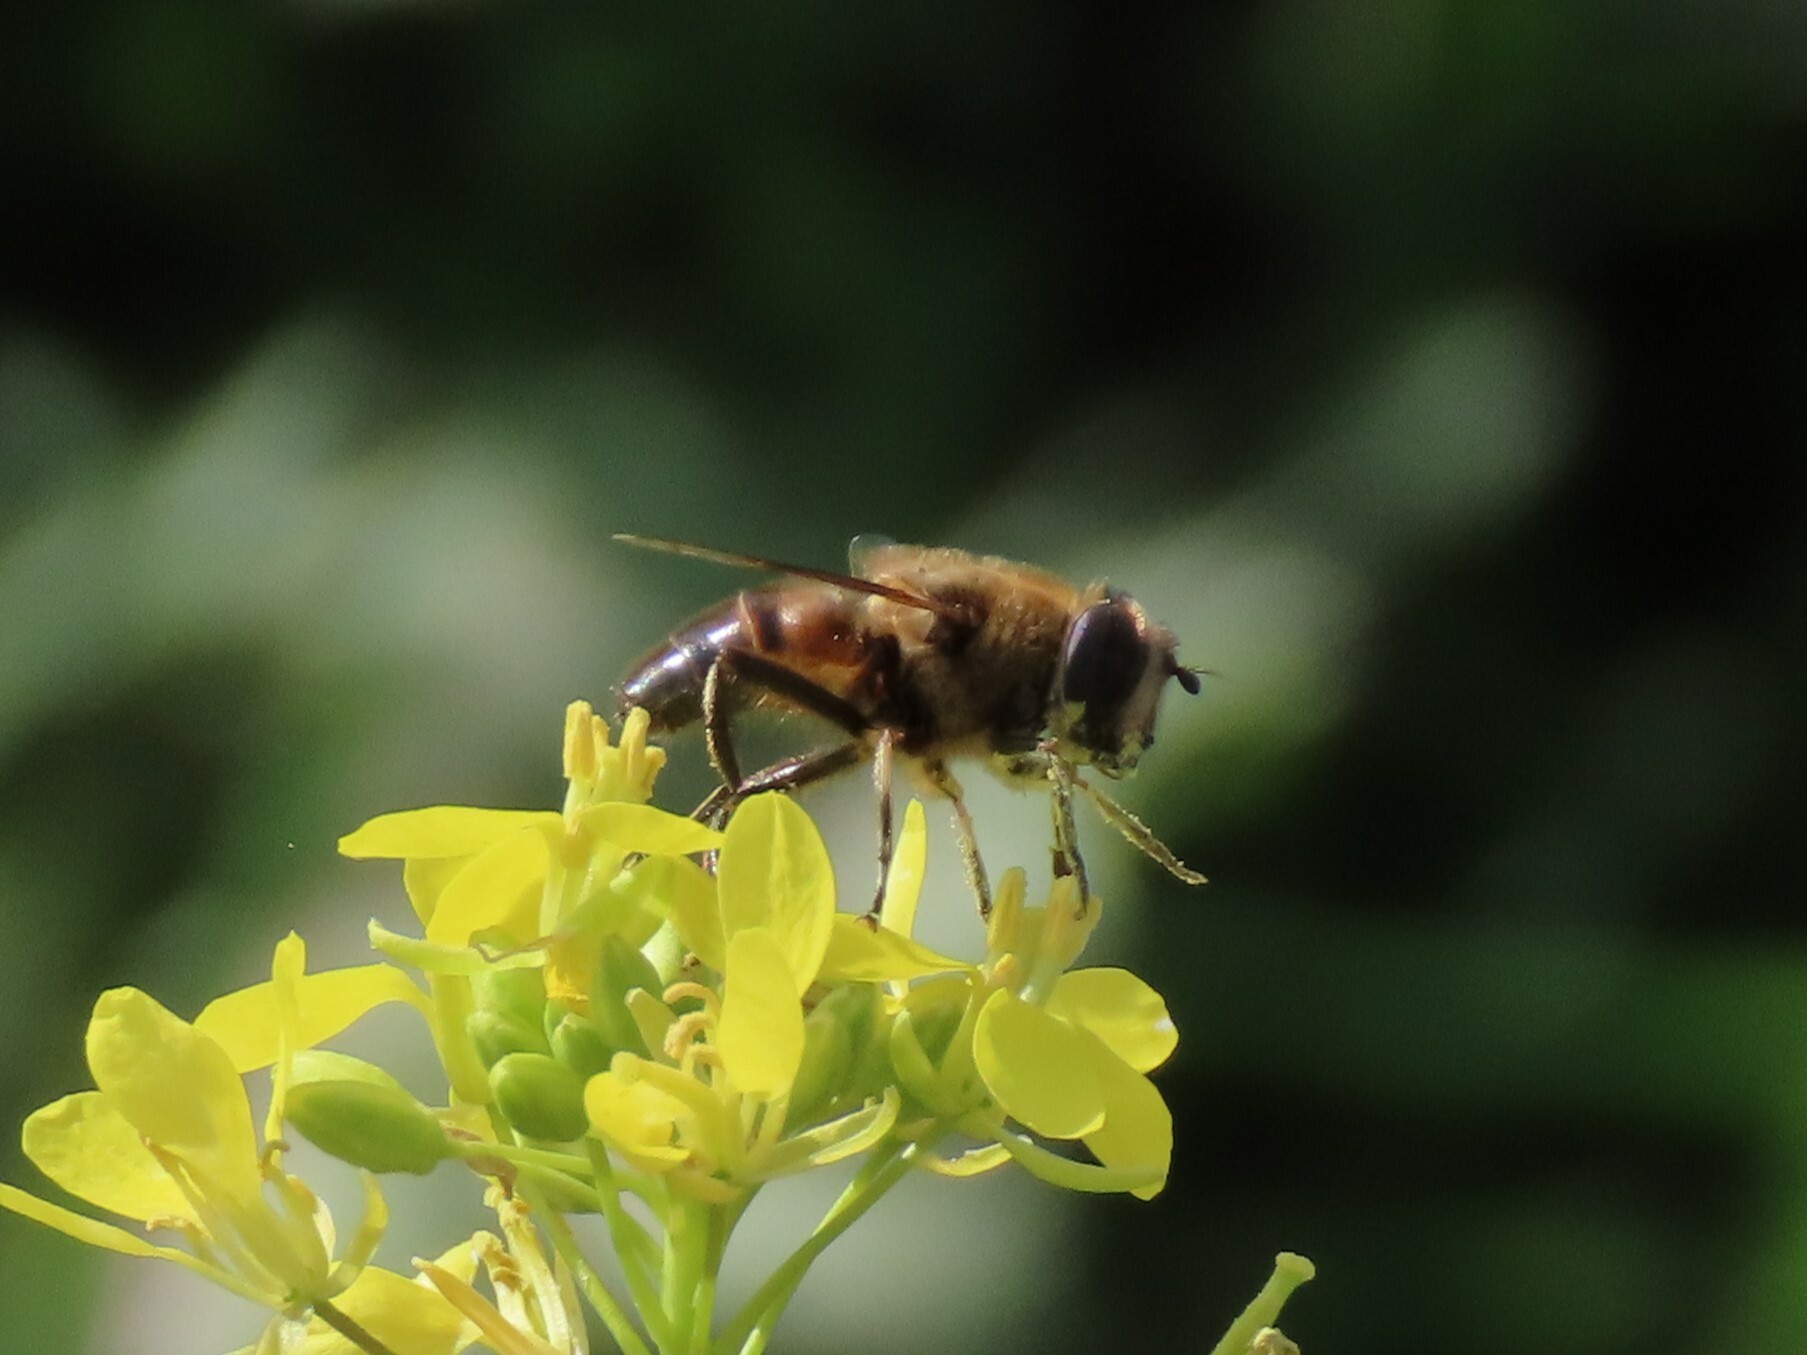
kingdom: Animalia
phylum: Arthropoda
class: Insecta
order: Diptera
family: Syrphidae
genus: Eristalis
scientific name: Eristalis tenax
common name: Drone fly
